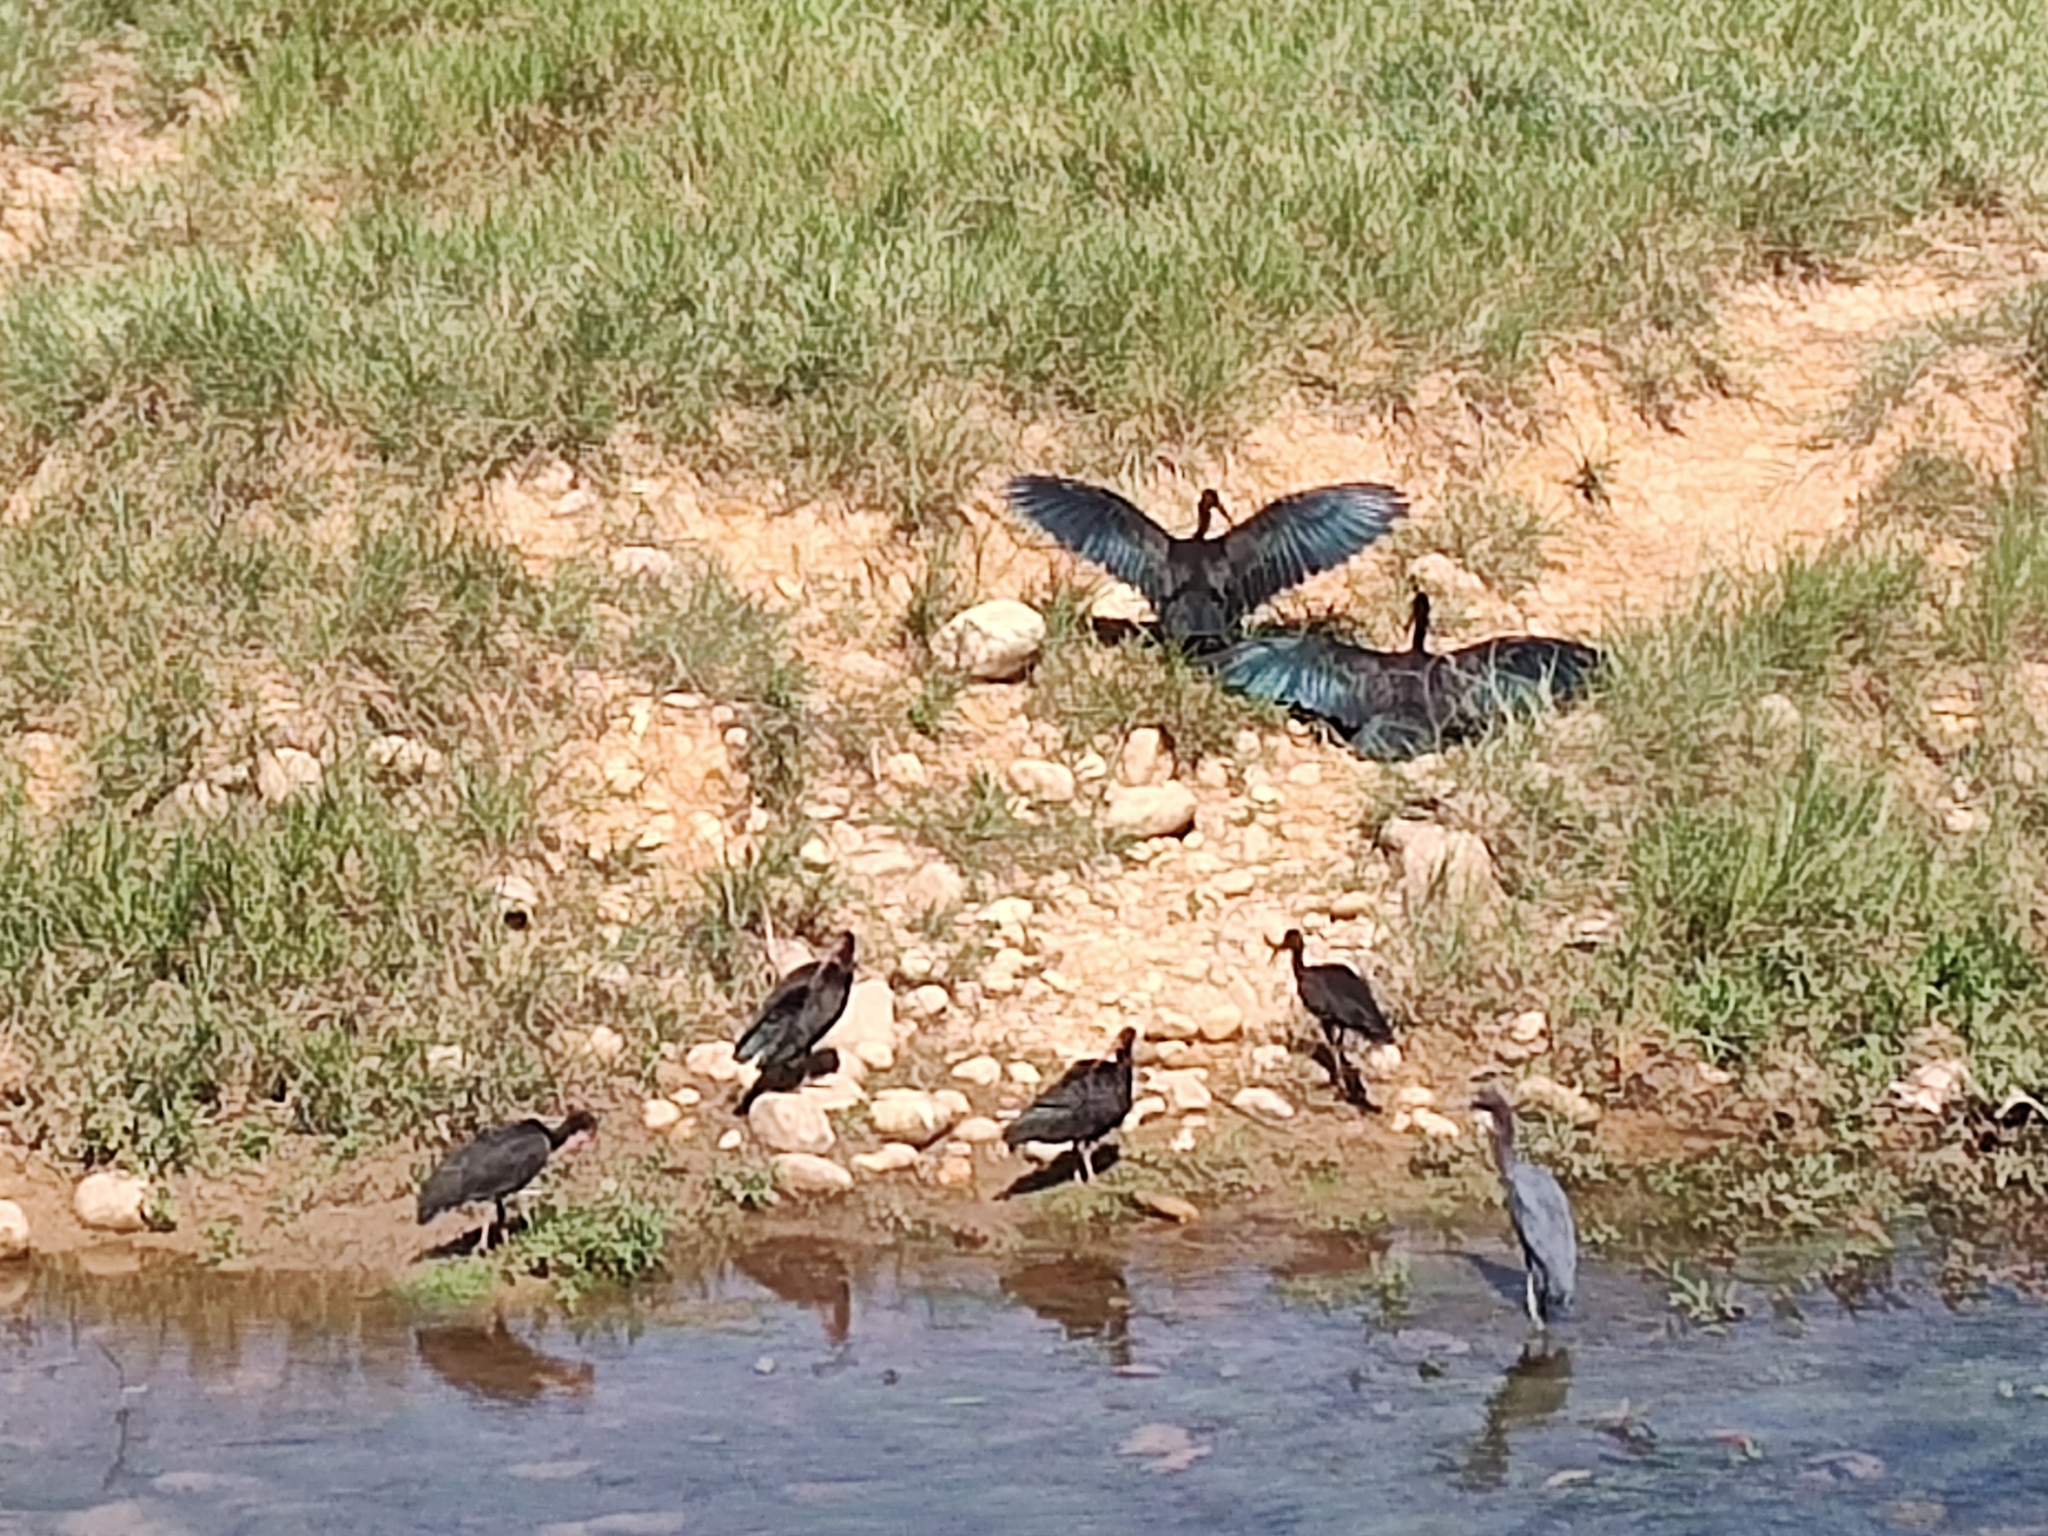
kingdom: Animalia
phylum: Chordata
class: Aves
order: Pelecaniformes
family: Ardeidae
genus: Egretta
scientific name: Egretta caerulea
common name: Little blue heron
